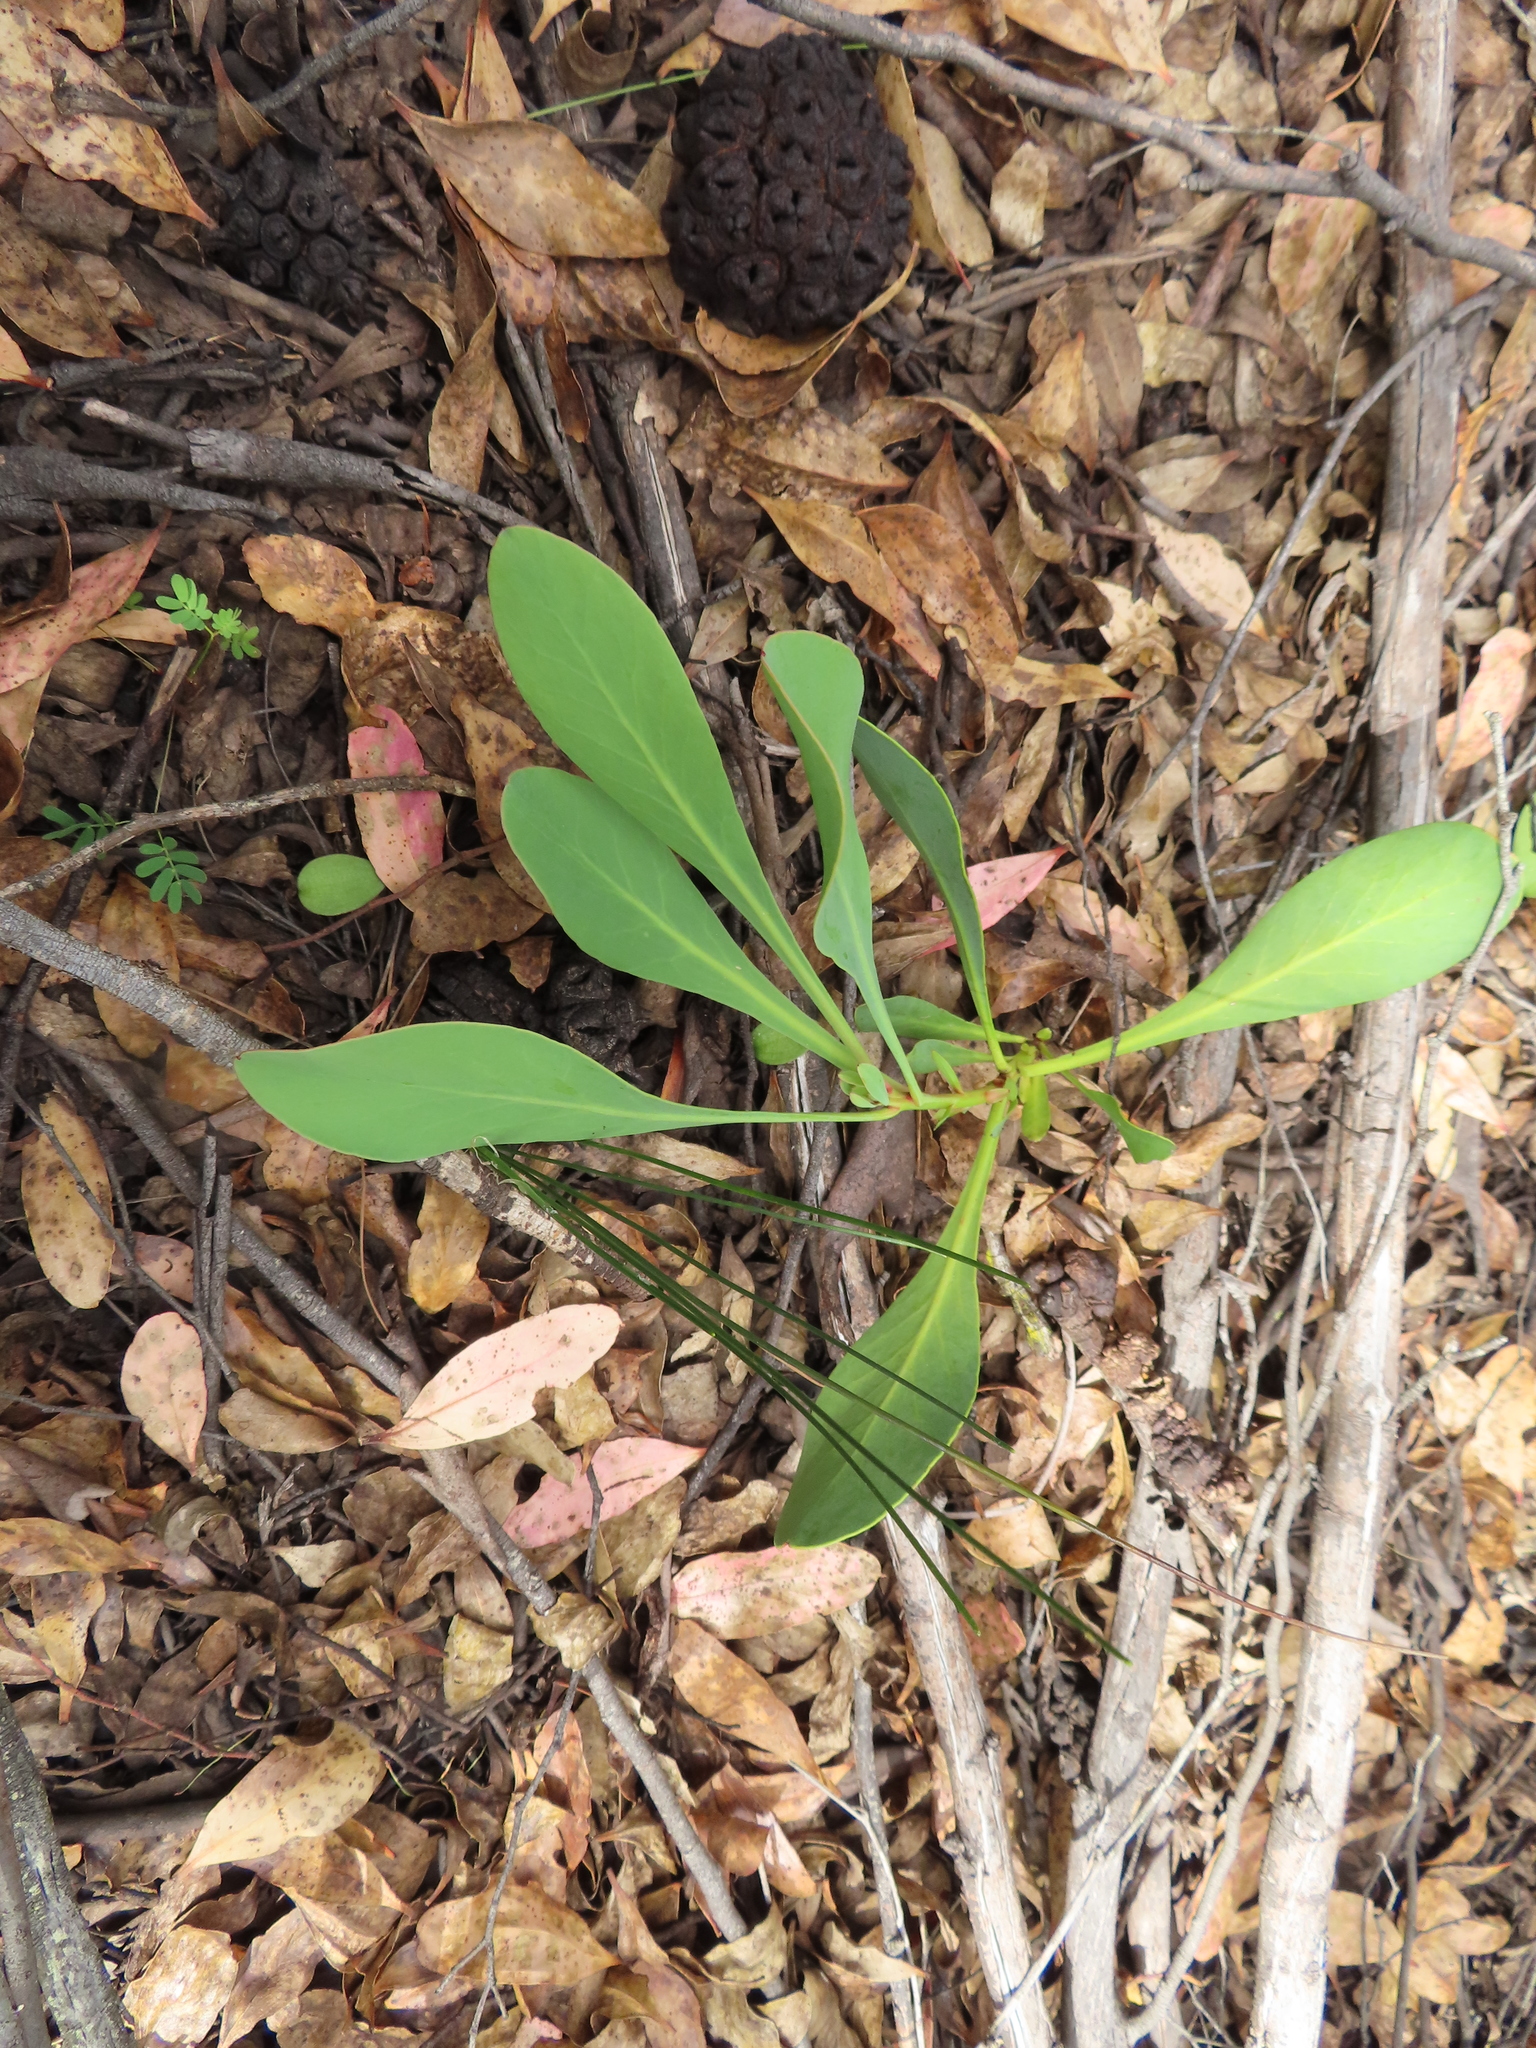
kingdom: Plantae
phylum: Tracheophyta
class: Magnoliopsida
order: Proteales
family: Proteaceae
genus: Protea
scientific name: Protea acaulos
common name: Common ground sugarbush
